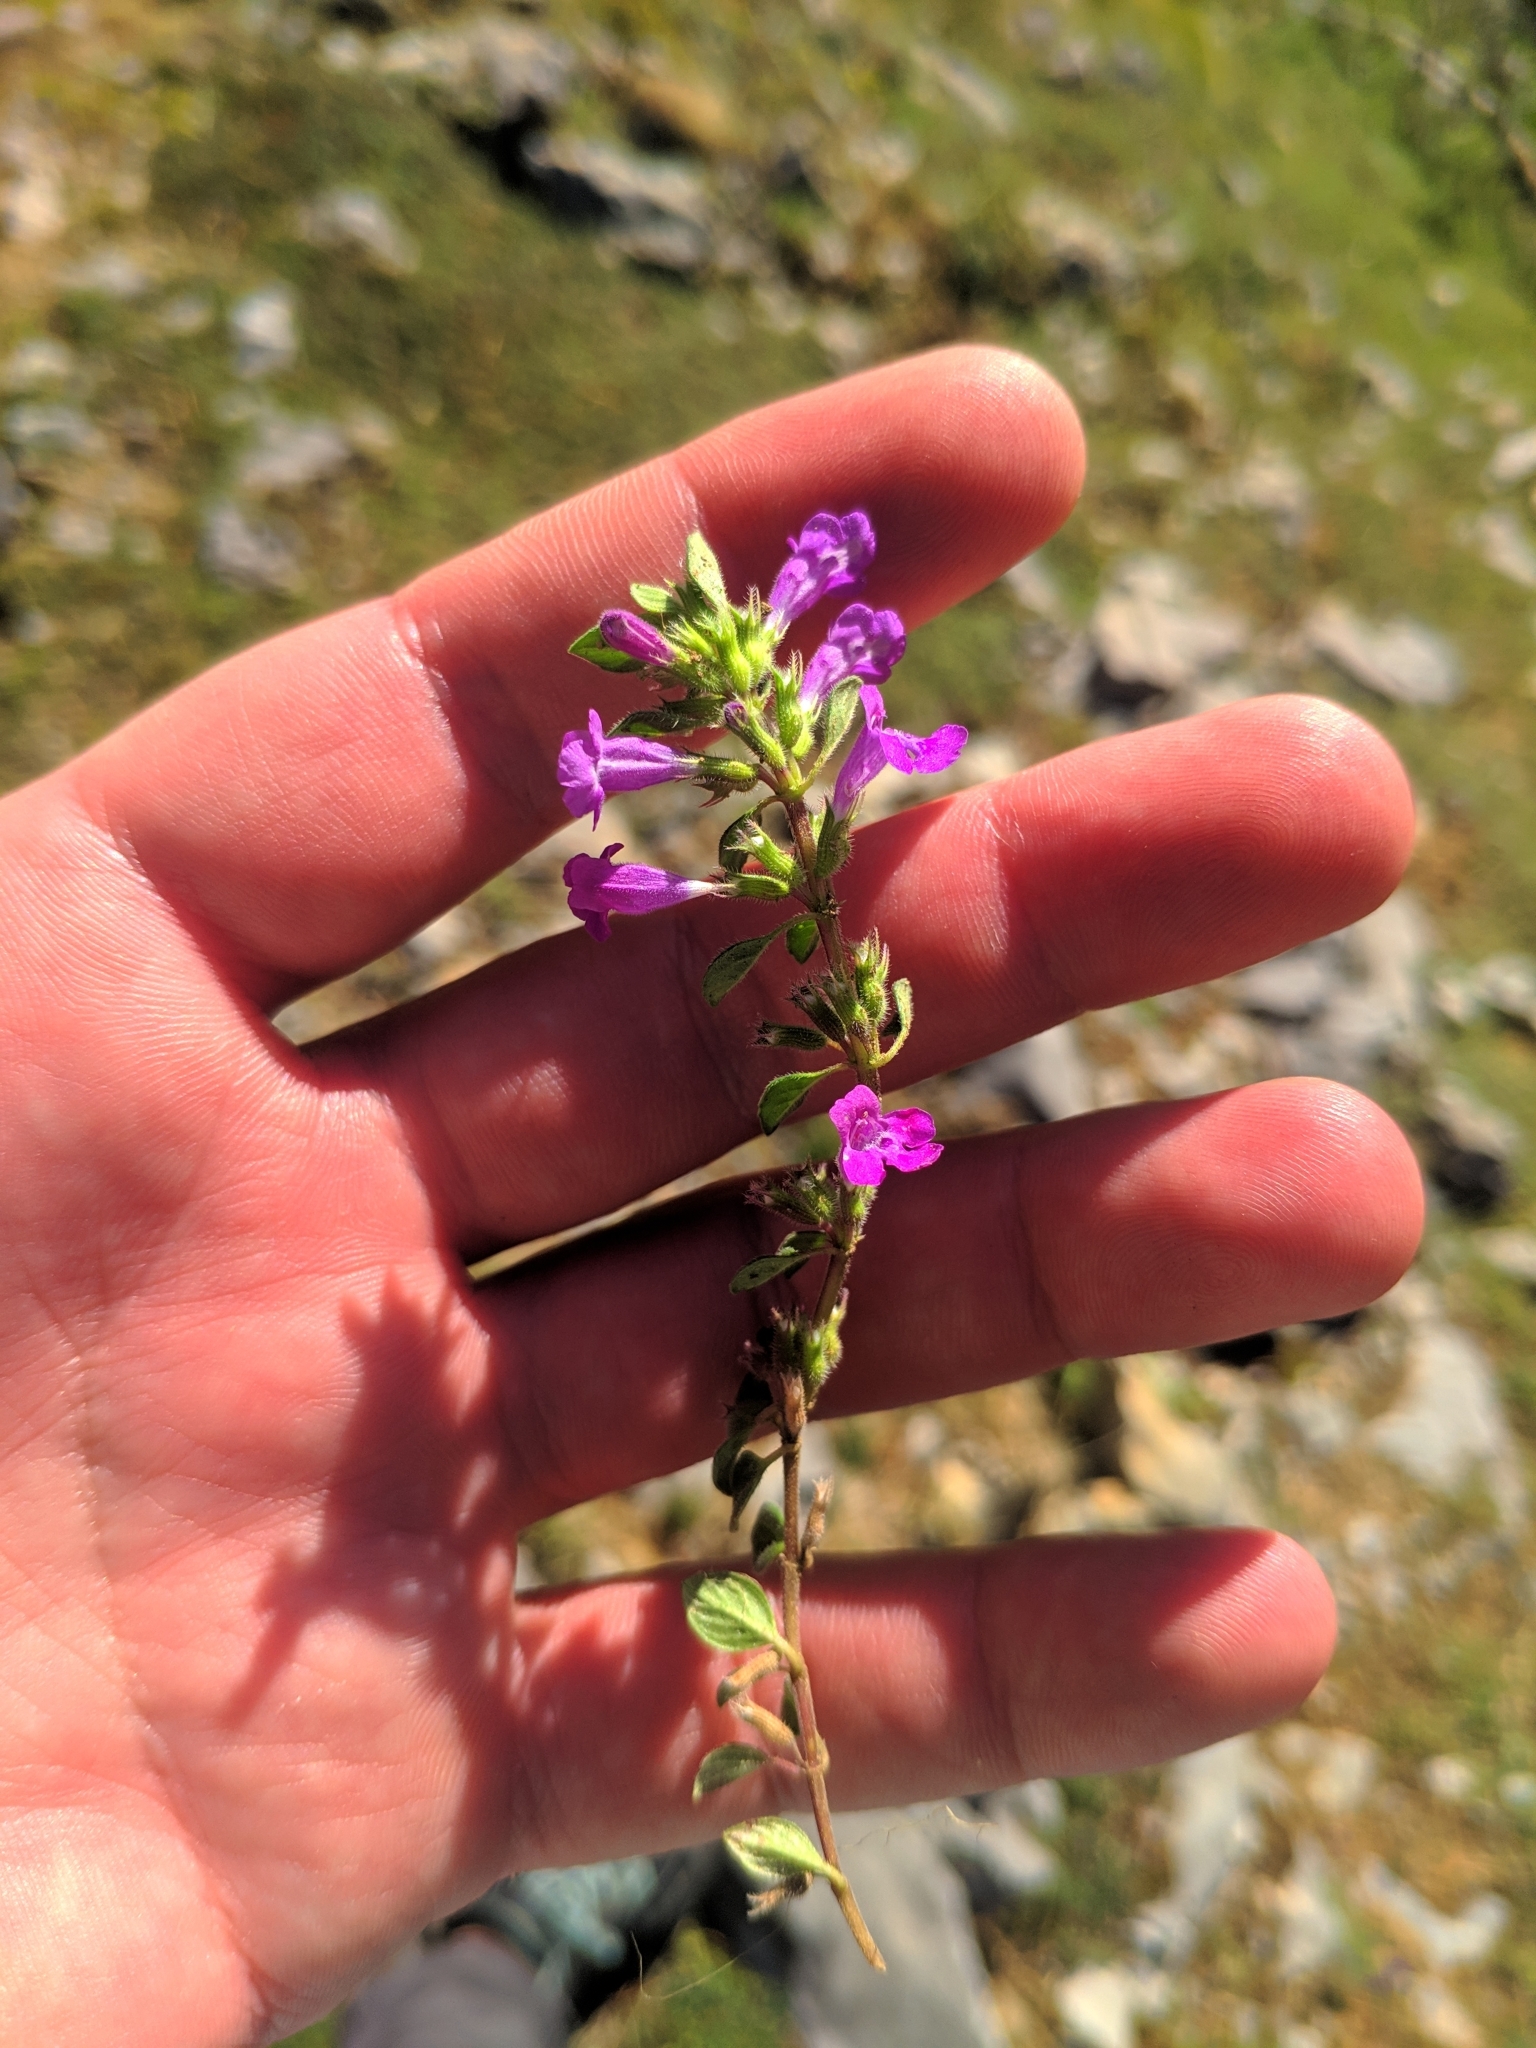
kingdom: Plantae
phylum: Tracheophyta
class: Magnoliopsida
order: Lamiales
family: Lamiaceae
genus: Clinopodium
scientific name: Clinopodium alpinum
